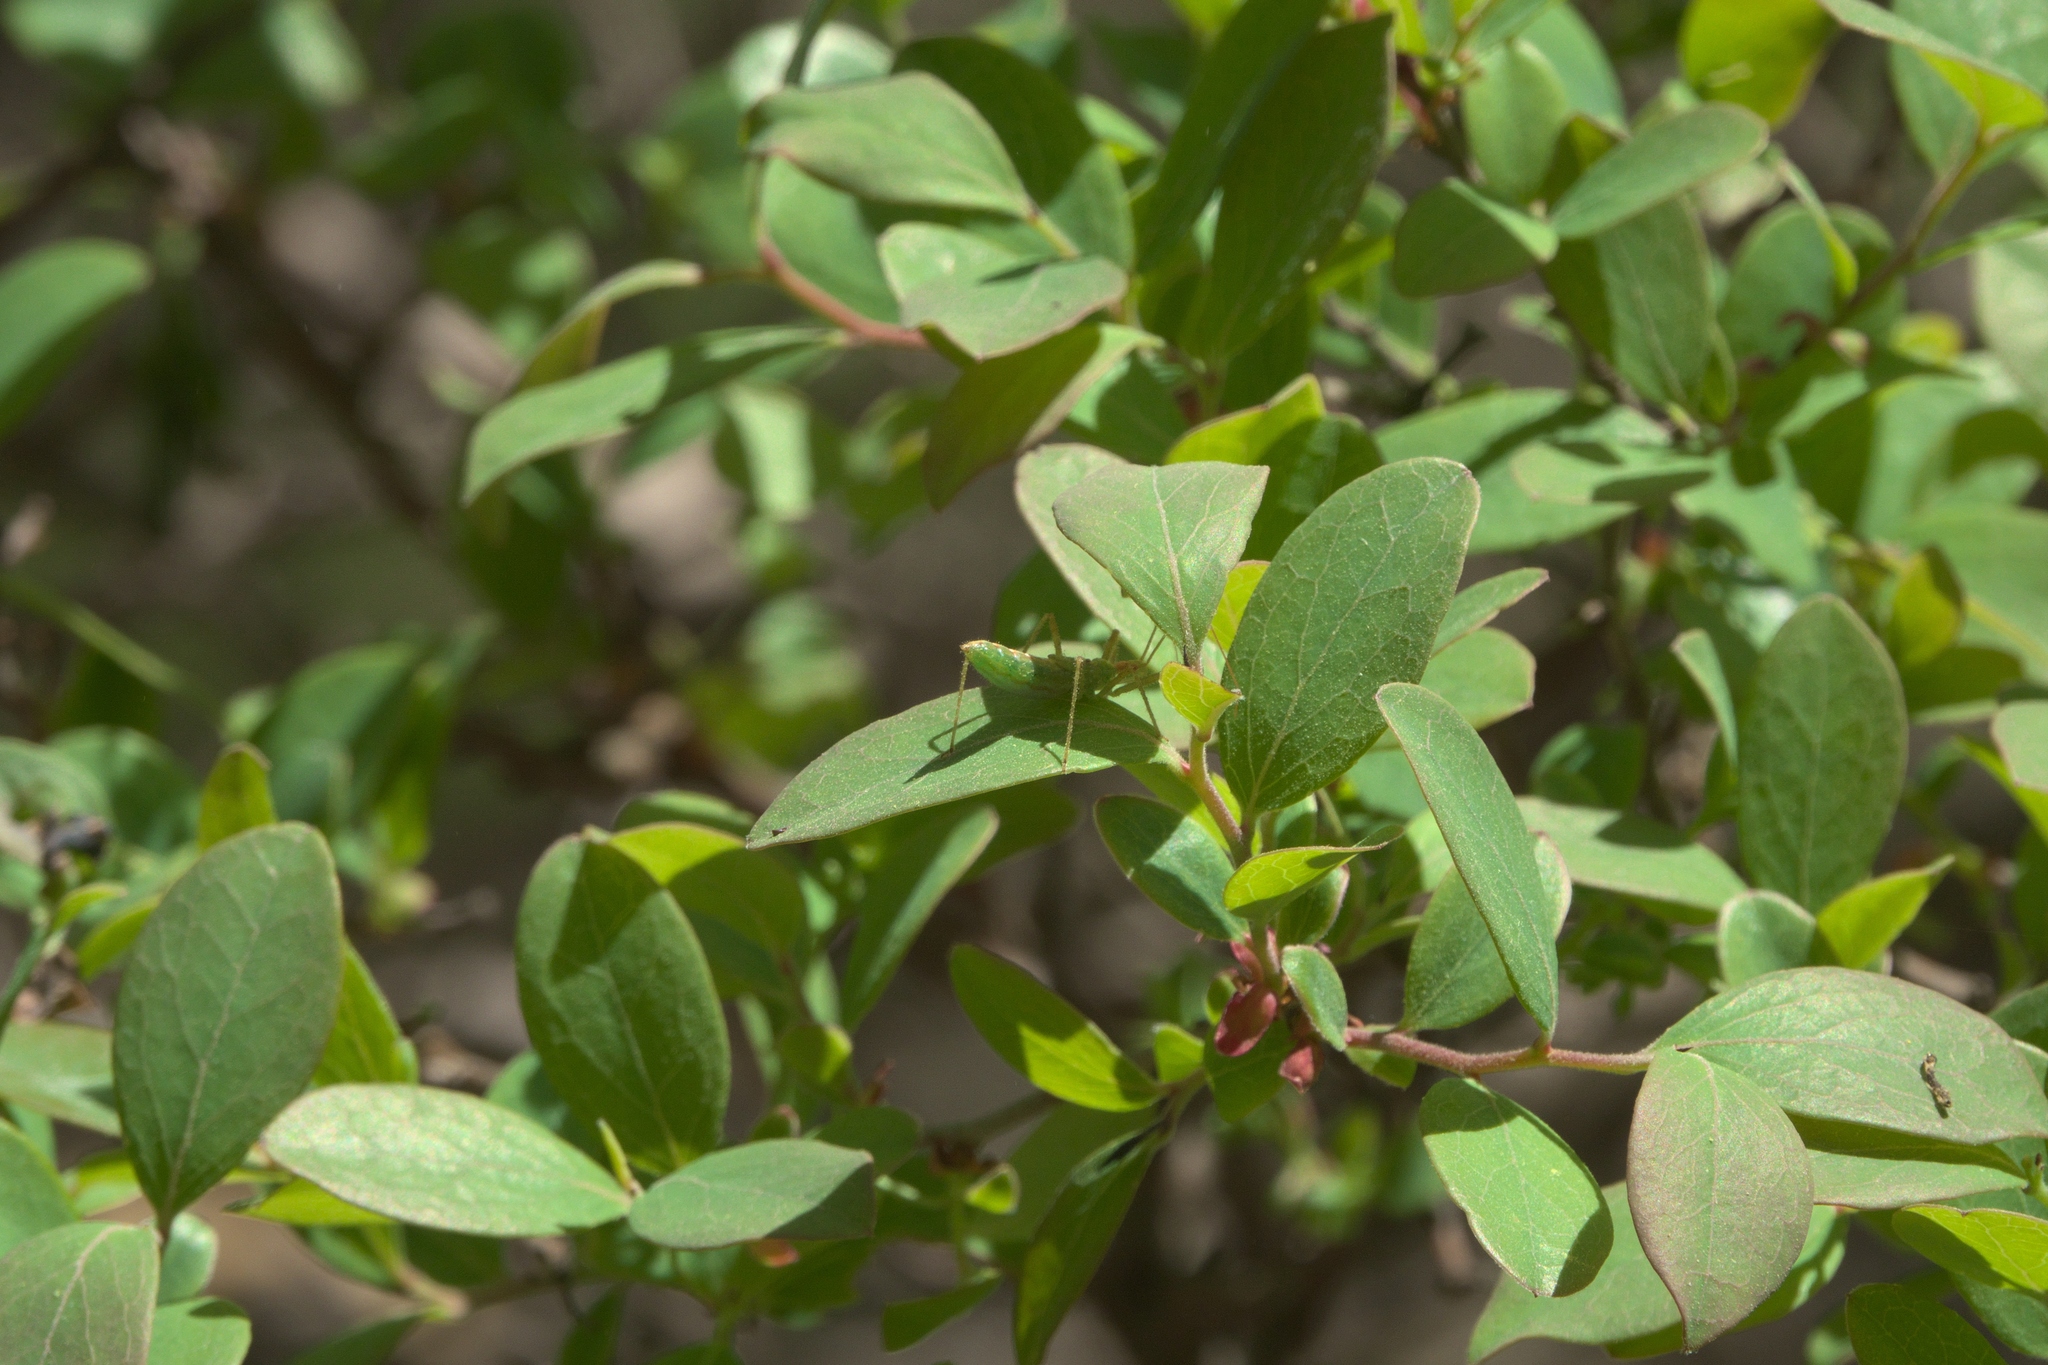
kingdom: Plantae
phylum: Tracheophyta
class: Magnoliopsida
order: Ericales
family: Ericaceae
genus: Vaccinium
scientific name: Vaccinium arboreum
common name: Farkleberry
